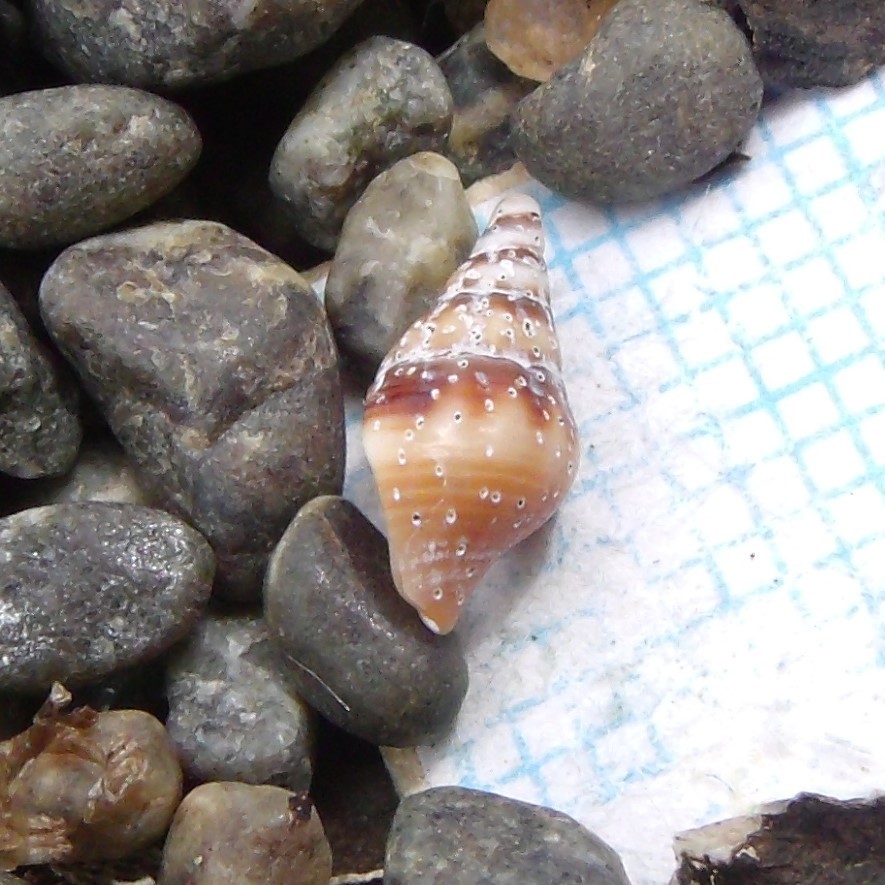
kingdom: Animalia
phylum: Mollusca
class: Gastropoda
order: Neogastropoda
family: Tudiclidae
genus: Buccinulum
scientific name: Buccinulum littorinoides
